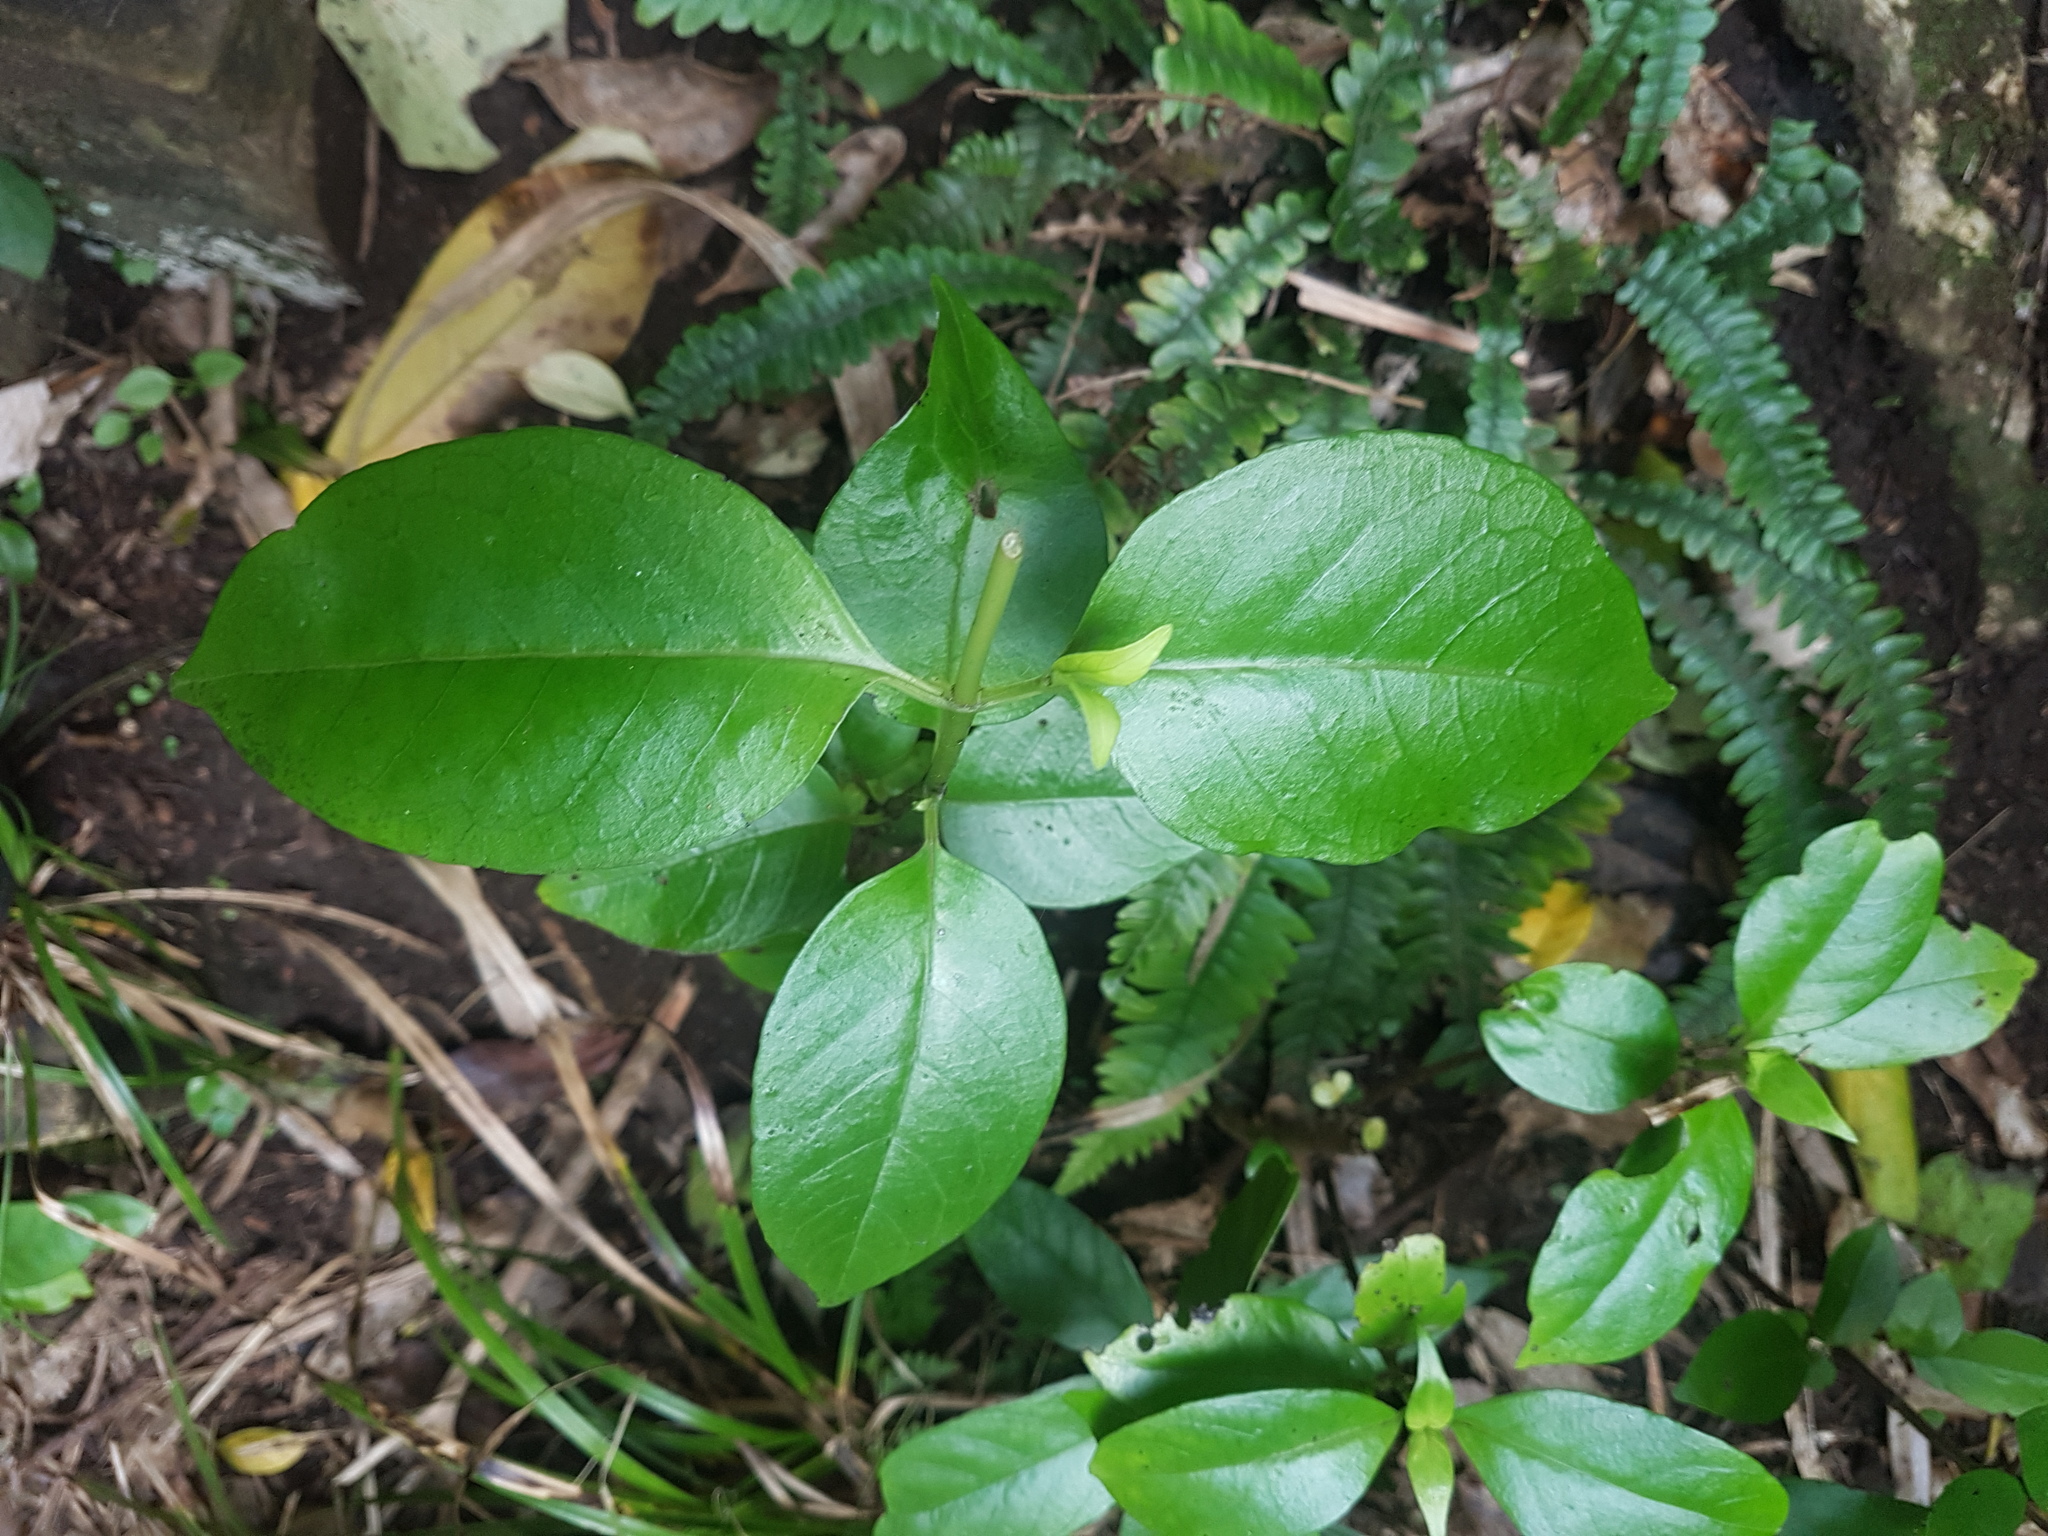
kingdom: Plantae
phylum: Tracheophyta
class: Magnoliopsida
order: Gentianales
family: Loganiaceae
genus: Geniostoma
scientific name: Geniostoma ligustrifolium
